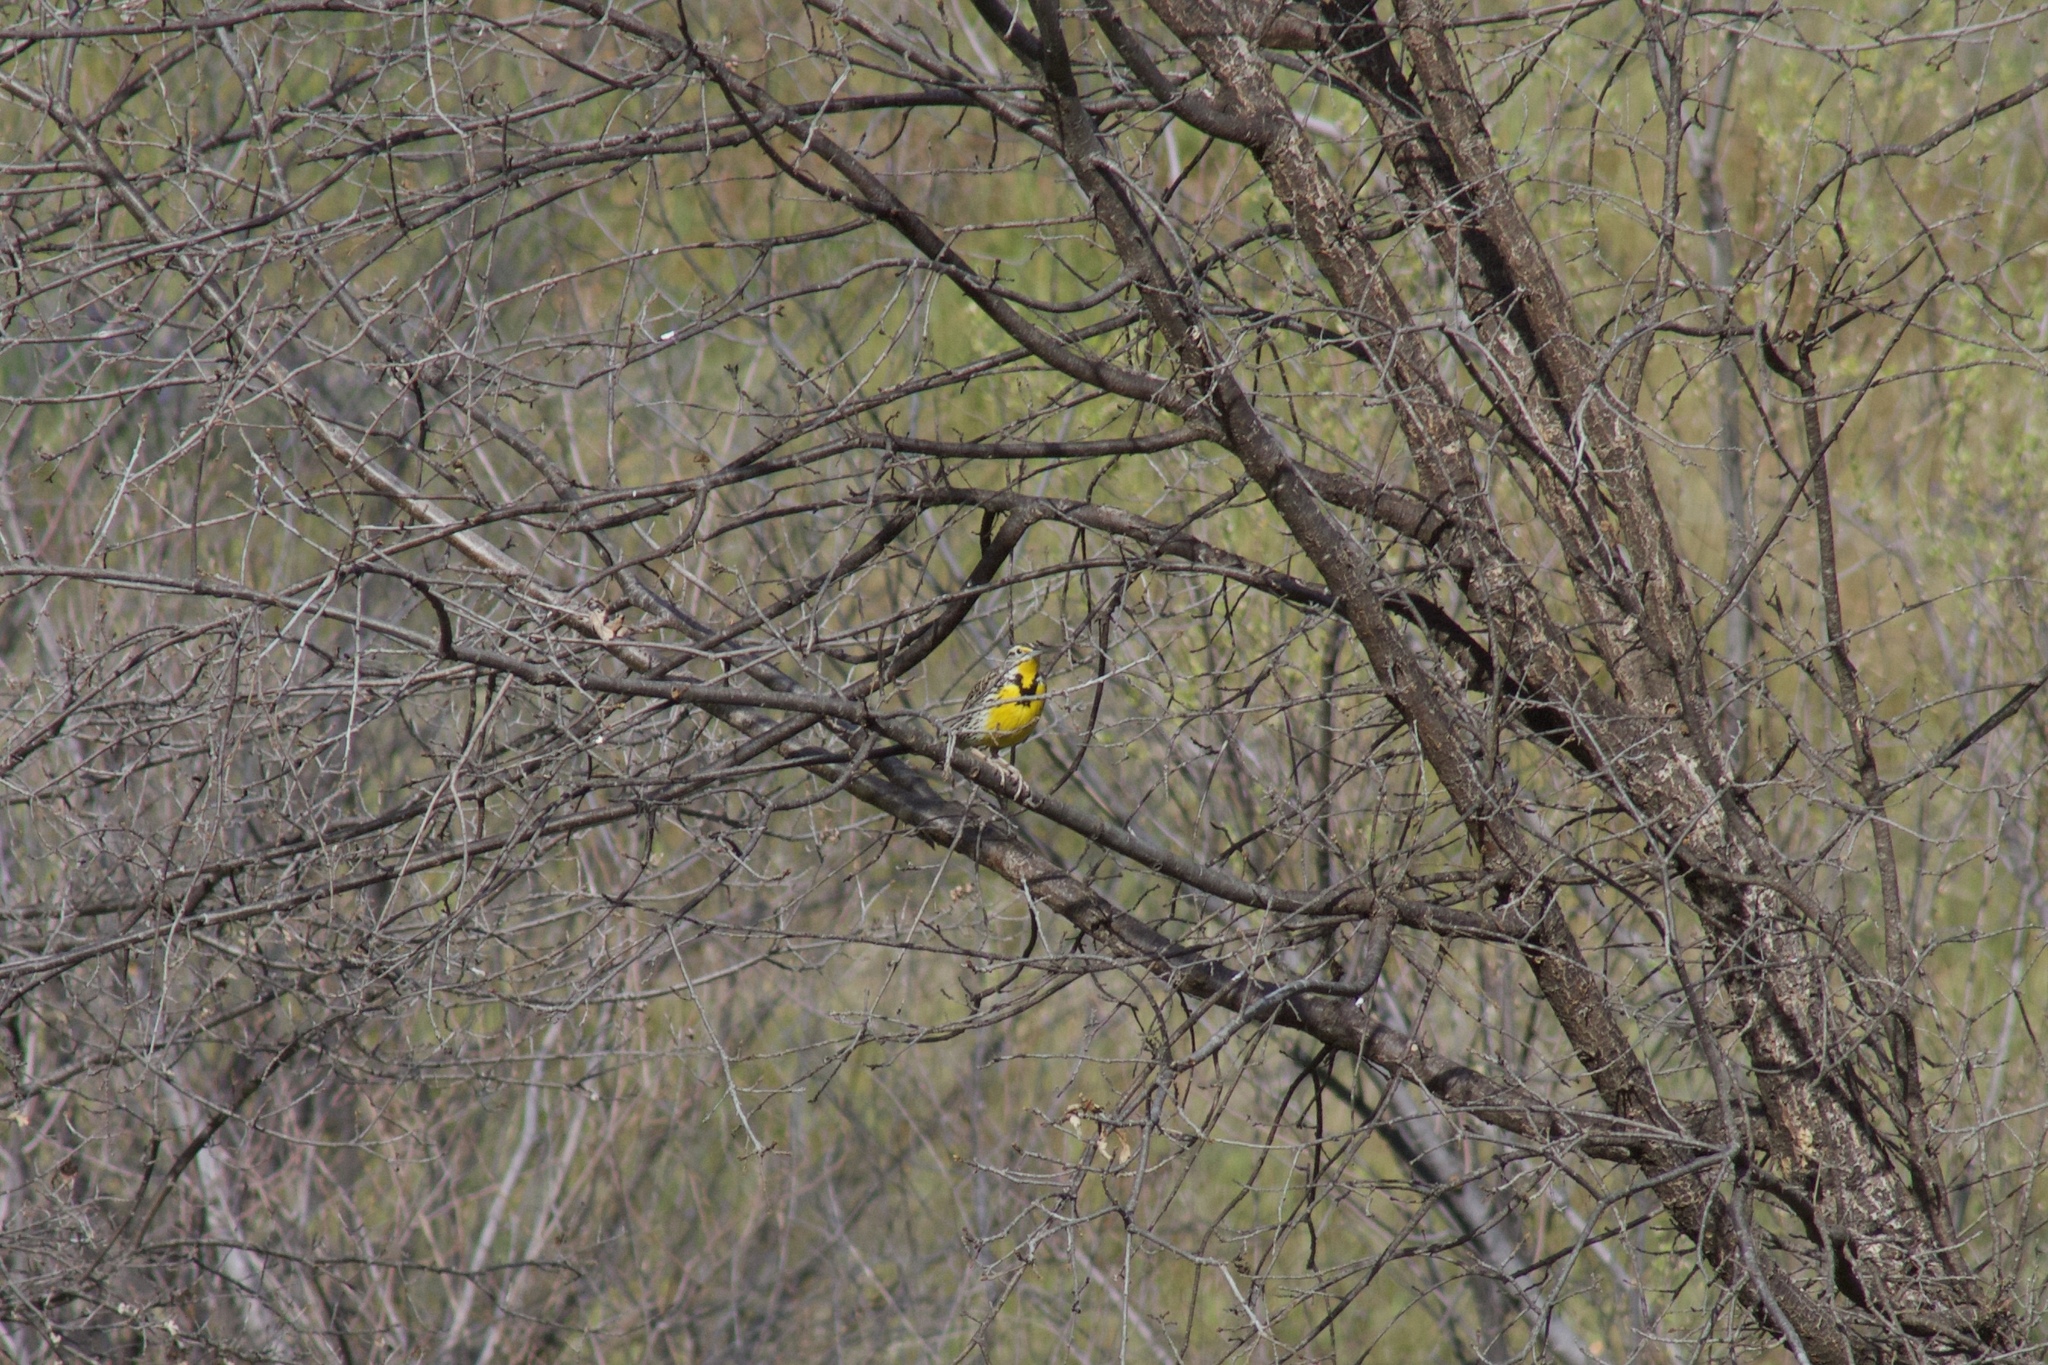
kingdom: Animalia
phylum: Chordata
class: Aves
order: Passeriformes
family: Icteridae
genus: Sturnella
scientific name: Sturnella neglecta
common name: Western meadowlark
